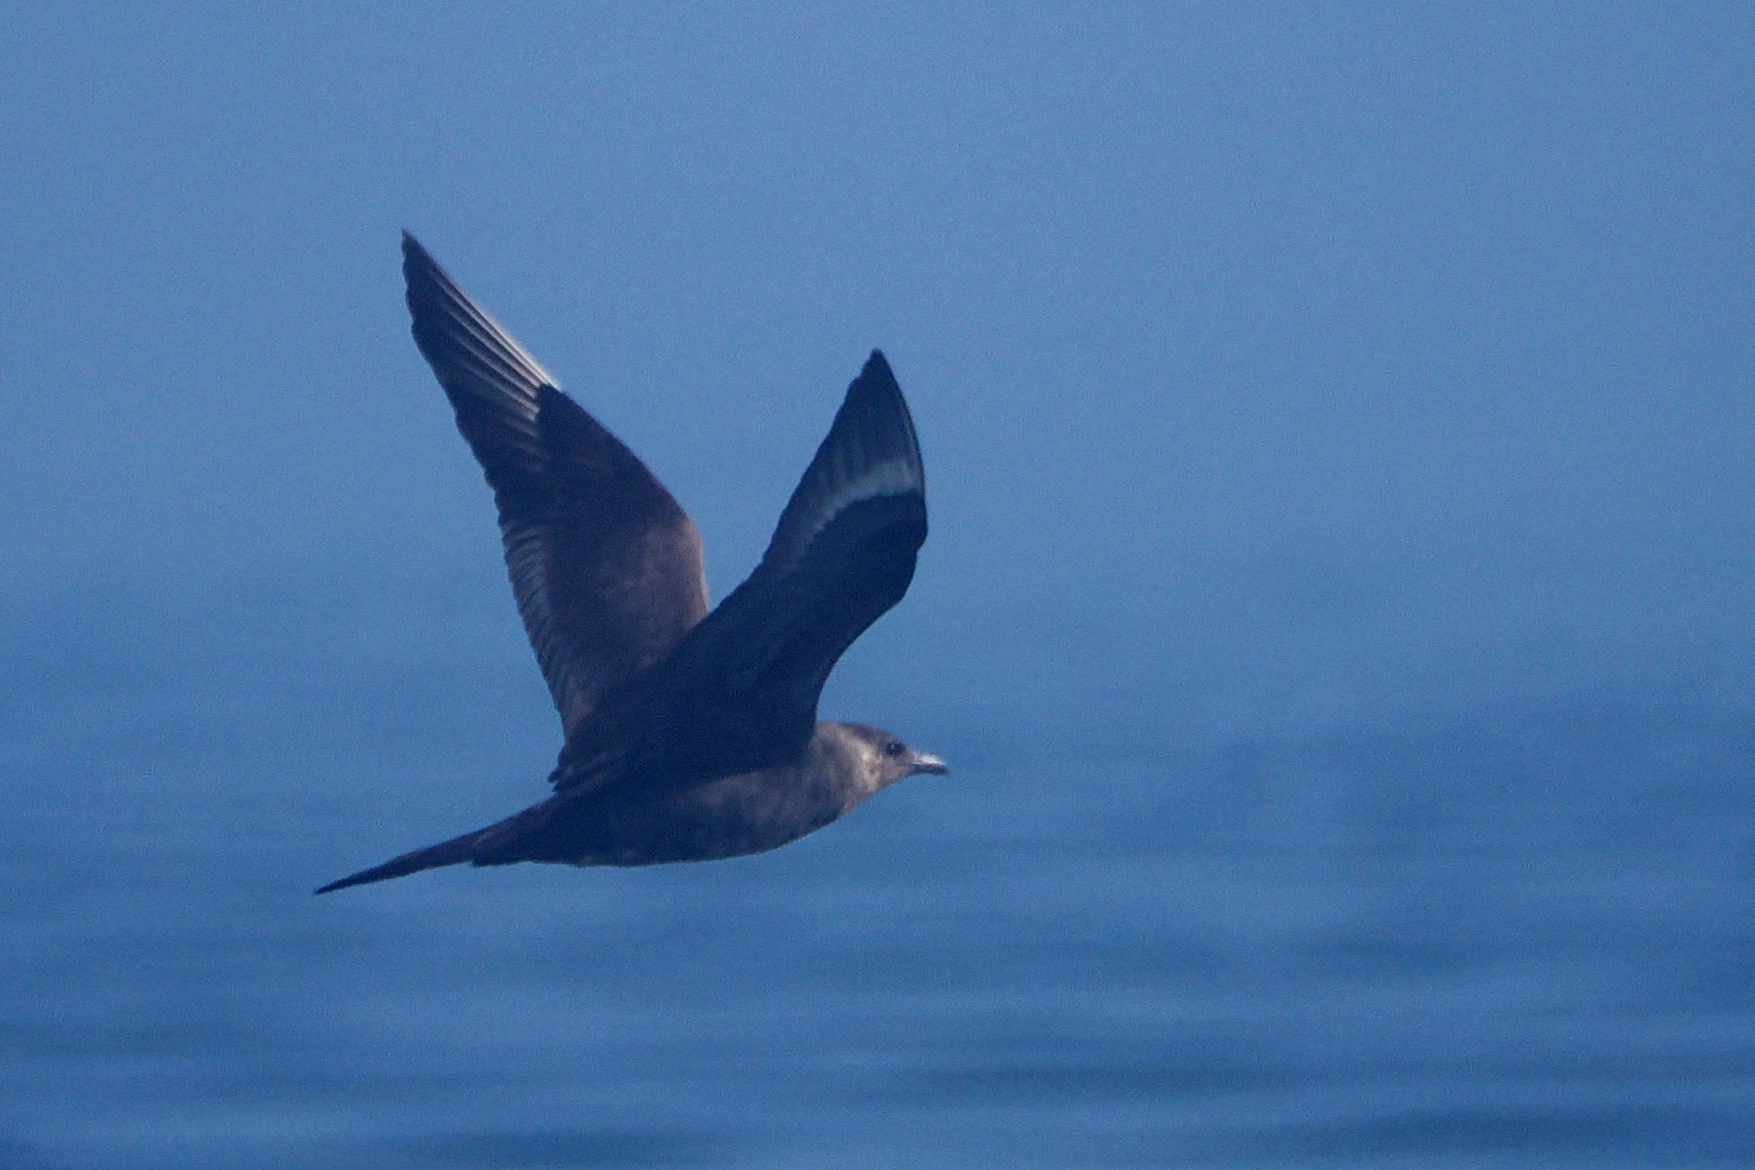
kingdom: Animalia
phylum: Chordata
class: Aves
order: Charadriiformes
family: Stercorariidae
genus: Stercorarius
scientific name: Stercorarius parasiticus
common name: Parasitic jaeger
